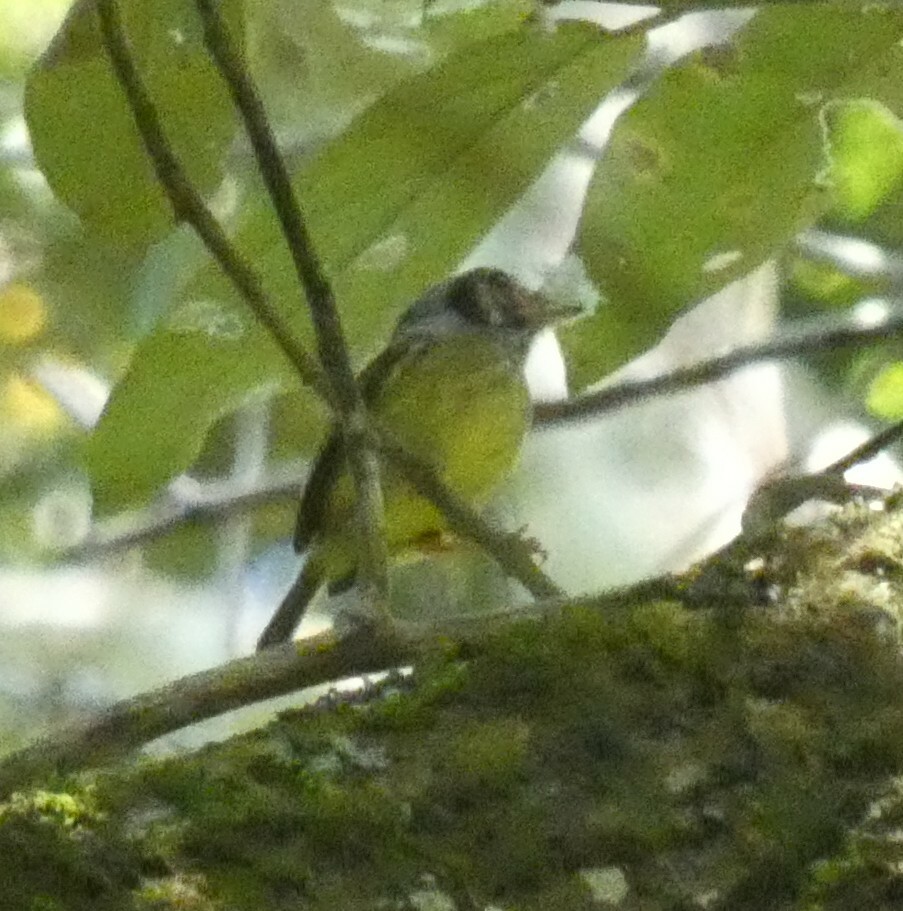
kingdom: Animalia
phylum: Chordata
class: Aves
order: Passeriformes
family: Tyrannidae
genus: Myiornis
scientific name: Myiornis auricularis
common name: Eared pygmy tyrant
